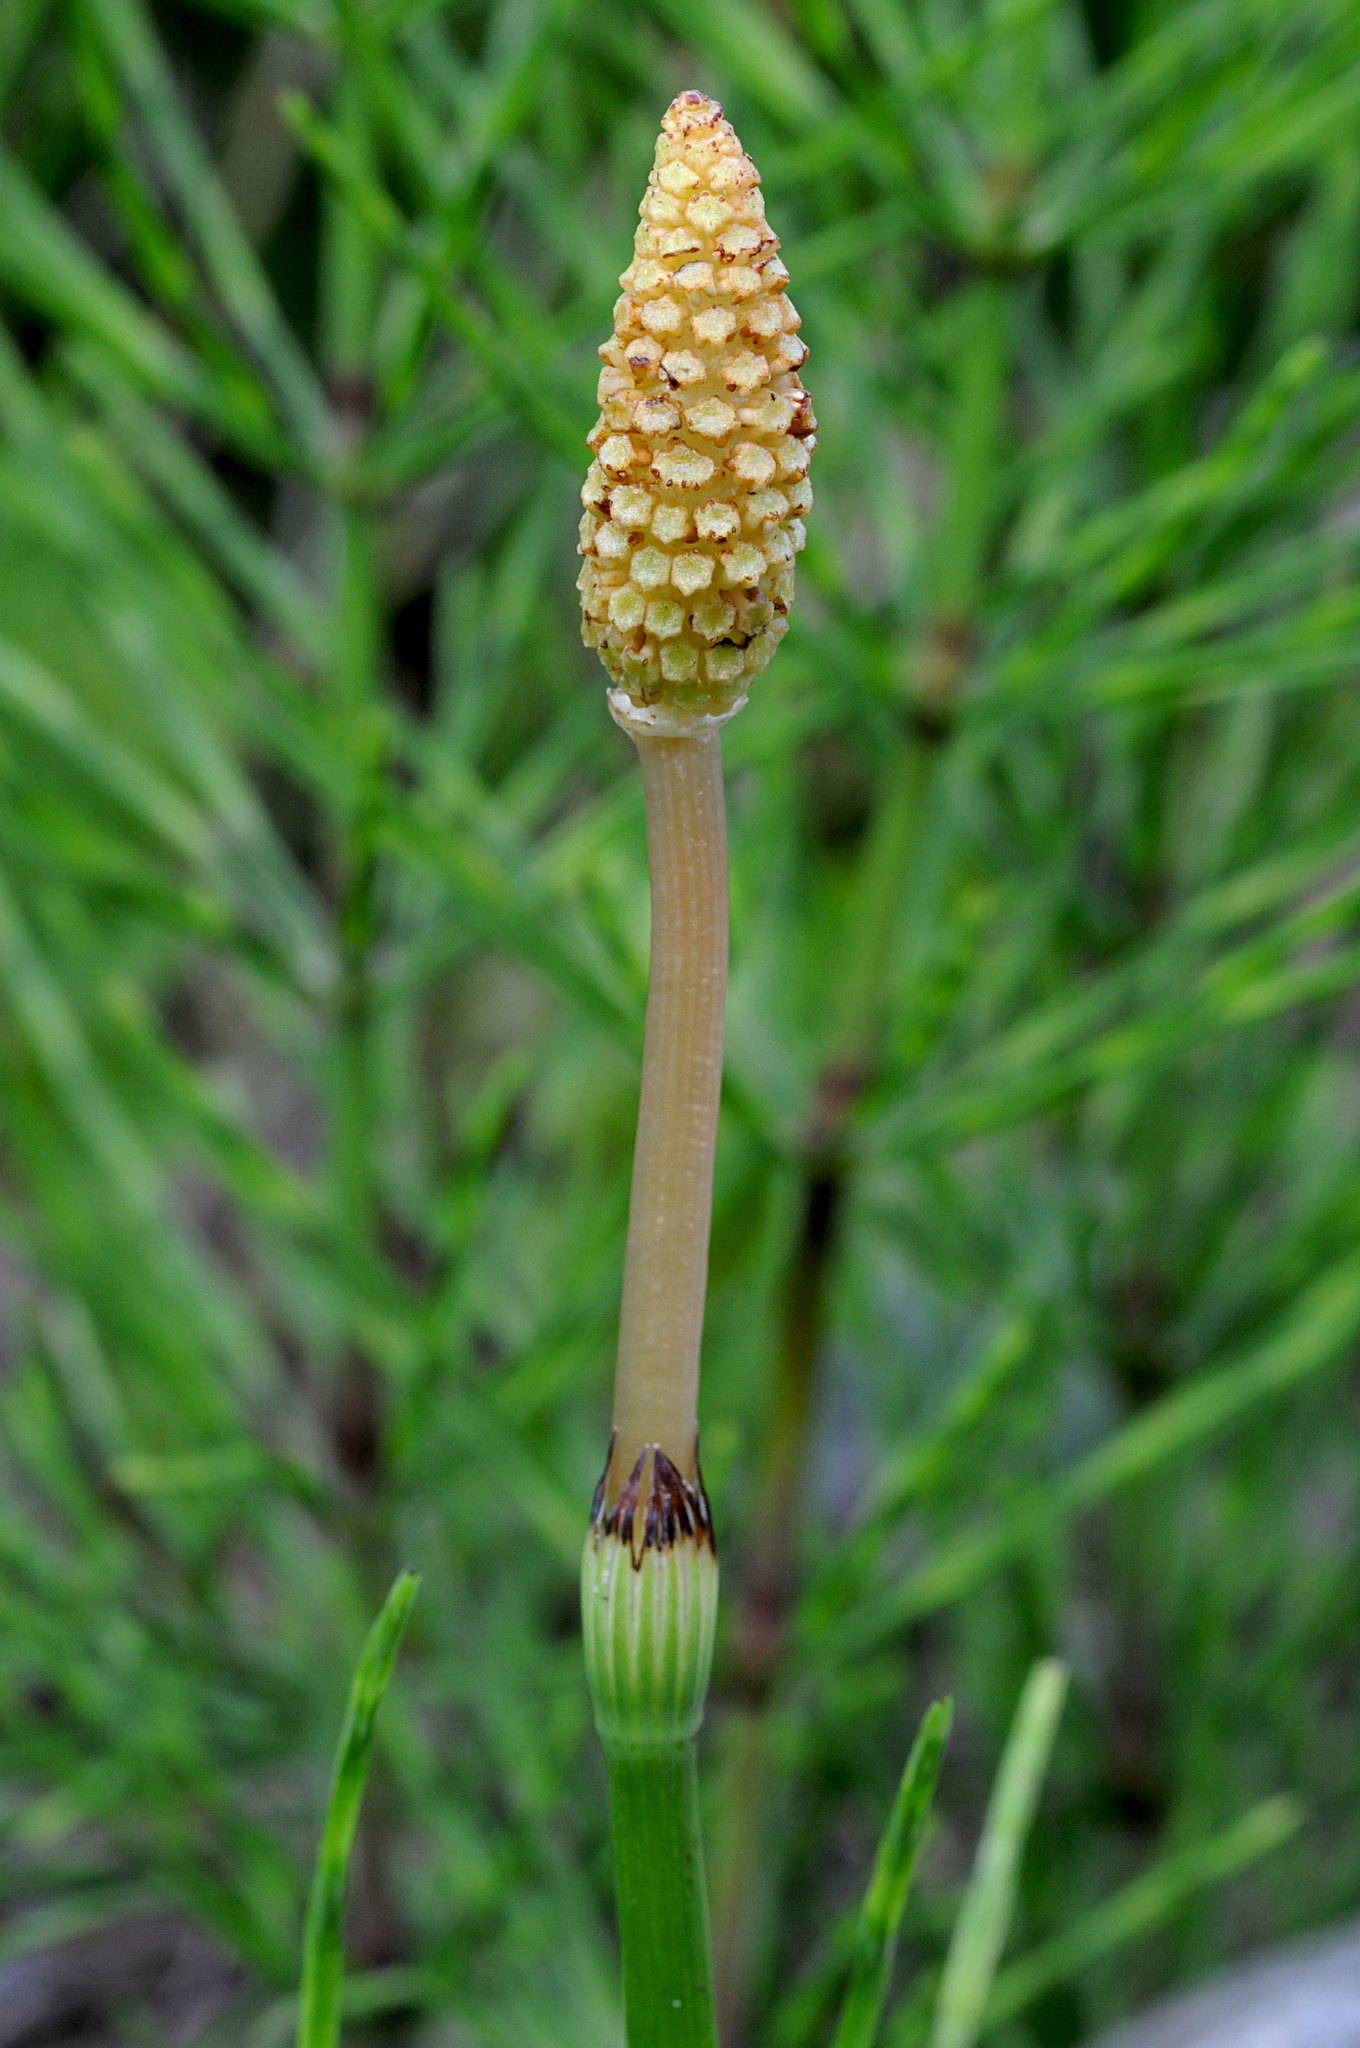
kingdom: Plantae
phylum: Tracheophyta
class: Polypodiopsida
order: Equisetales
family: Equisetaceae
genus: Equisetum
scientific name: Equisetum arvense
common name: Field horsetail
